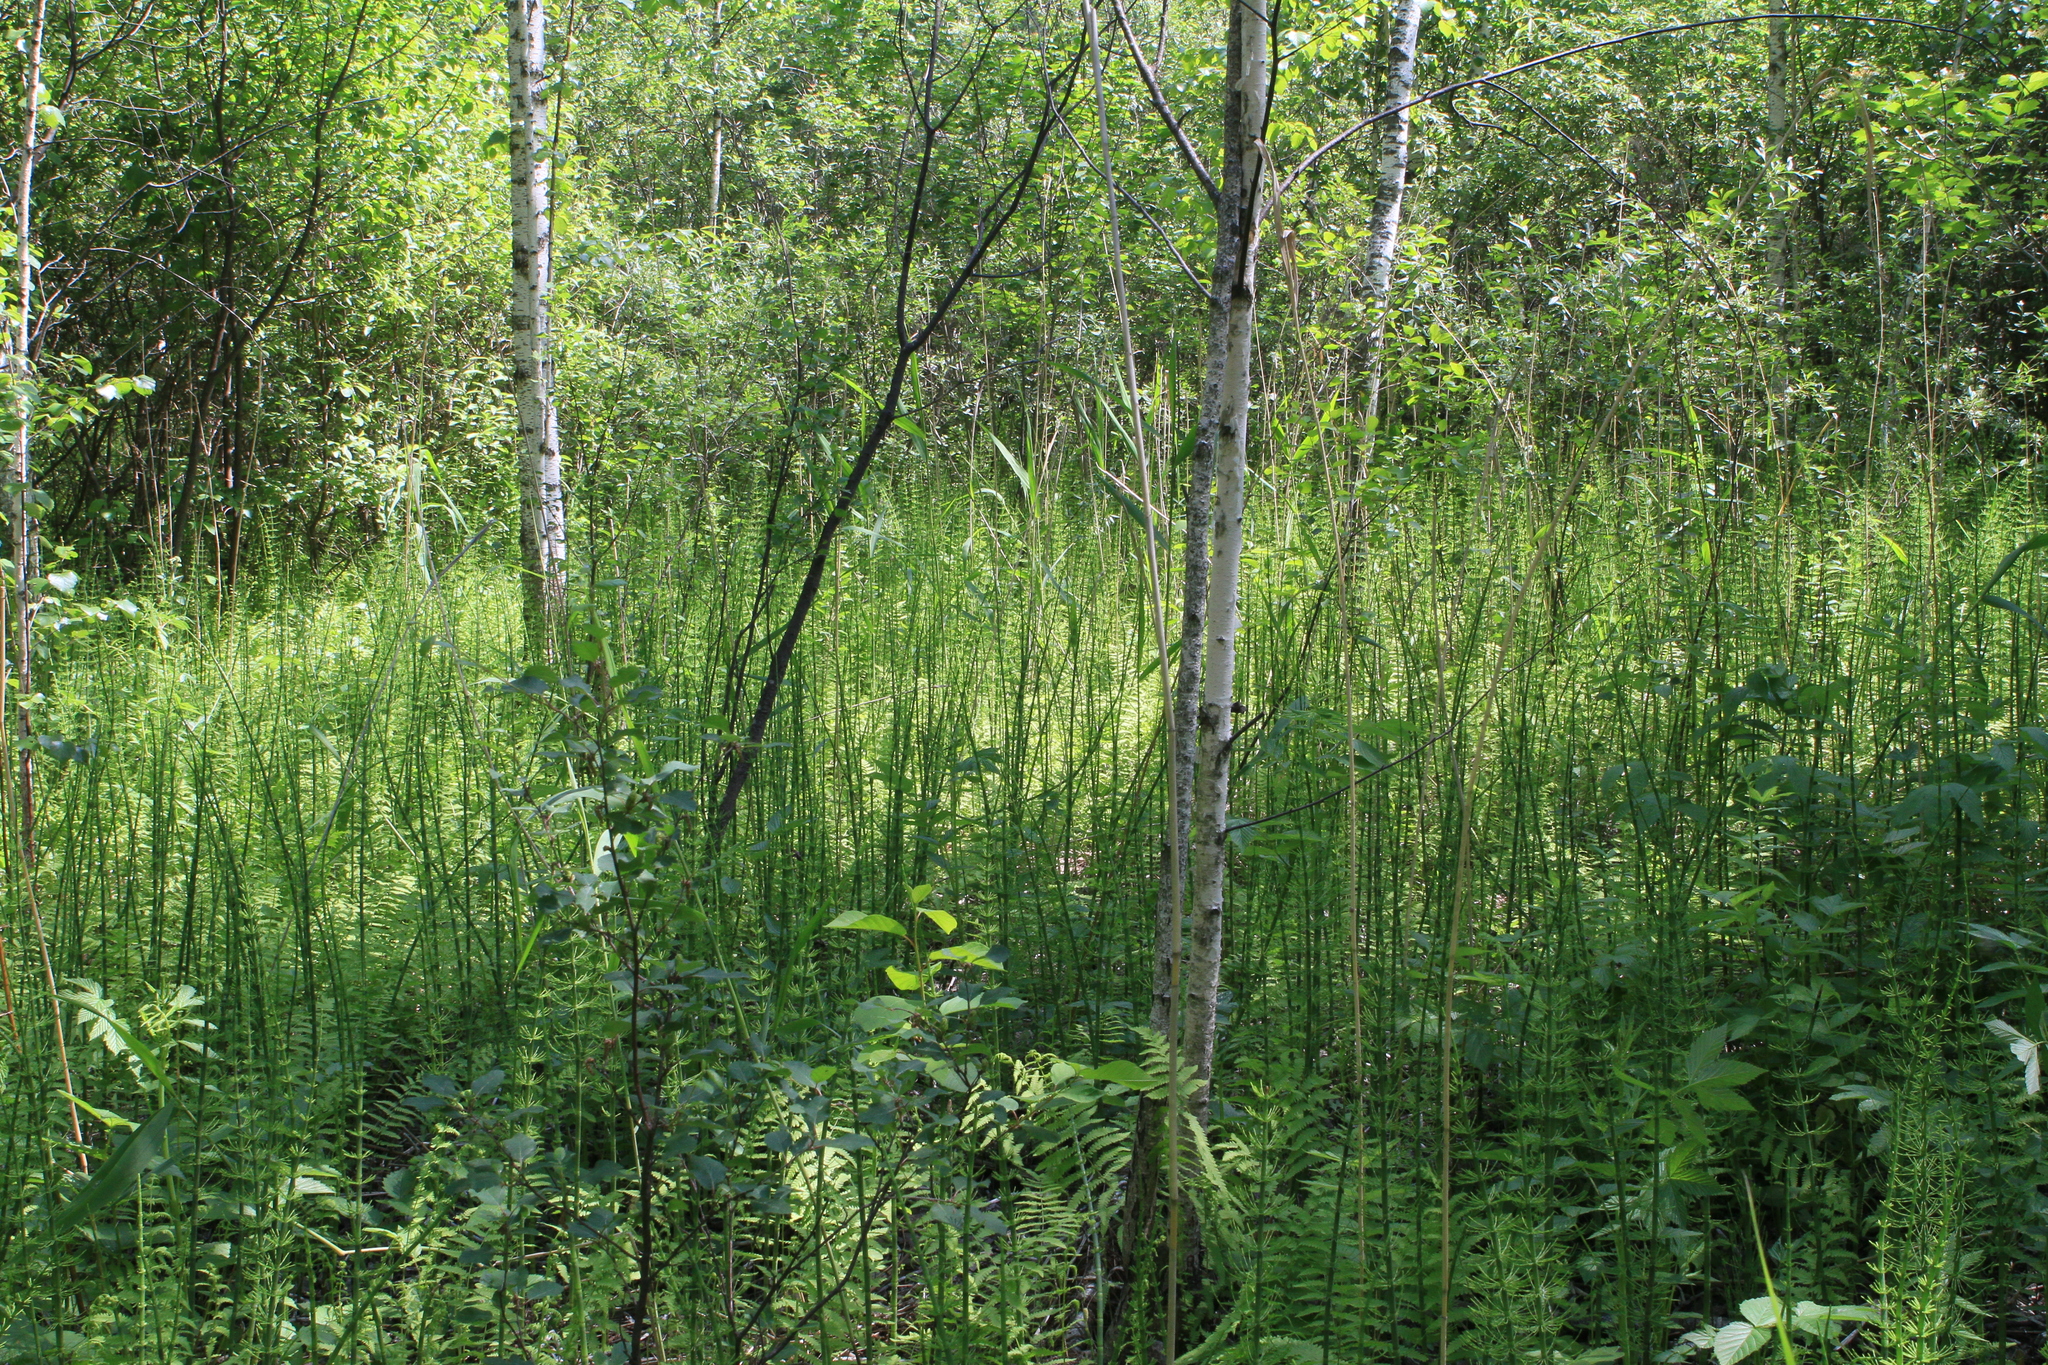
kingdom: Plantae
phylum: Tracheophyta
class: Magnoliopsida
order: Fagales
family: Betulaceae
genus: Betula
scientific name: Betula pubescens
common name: Downy birch
